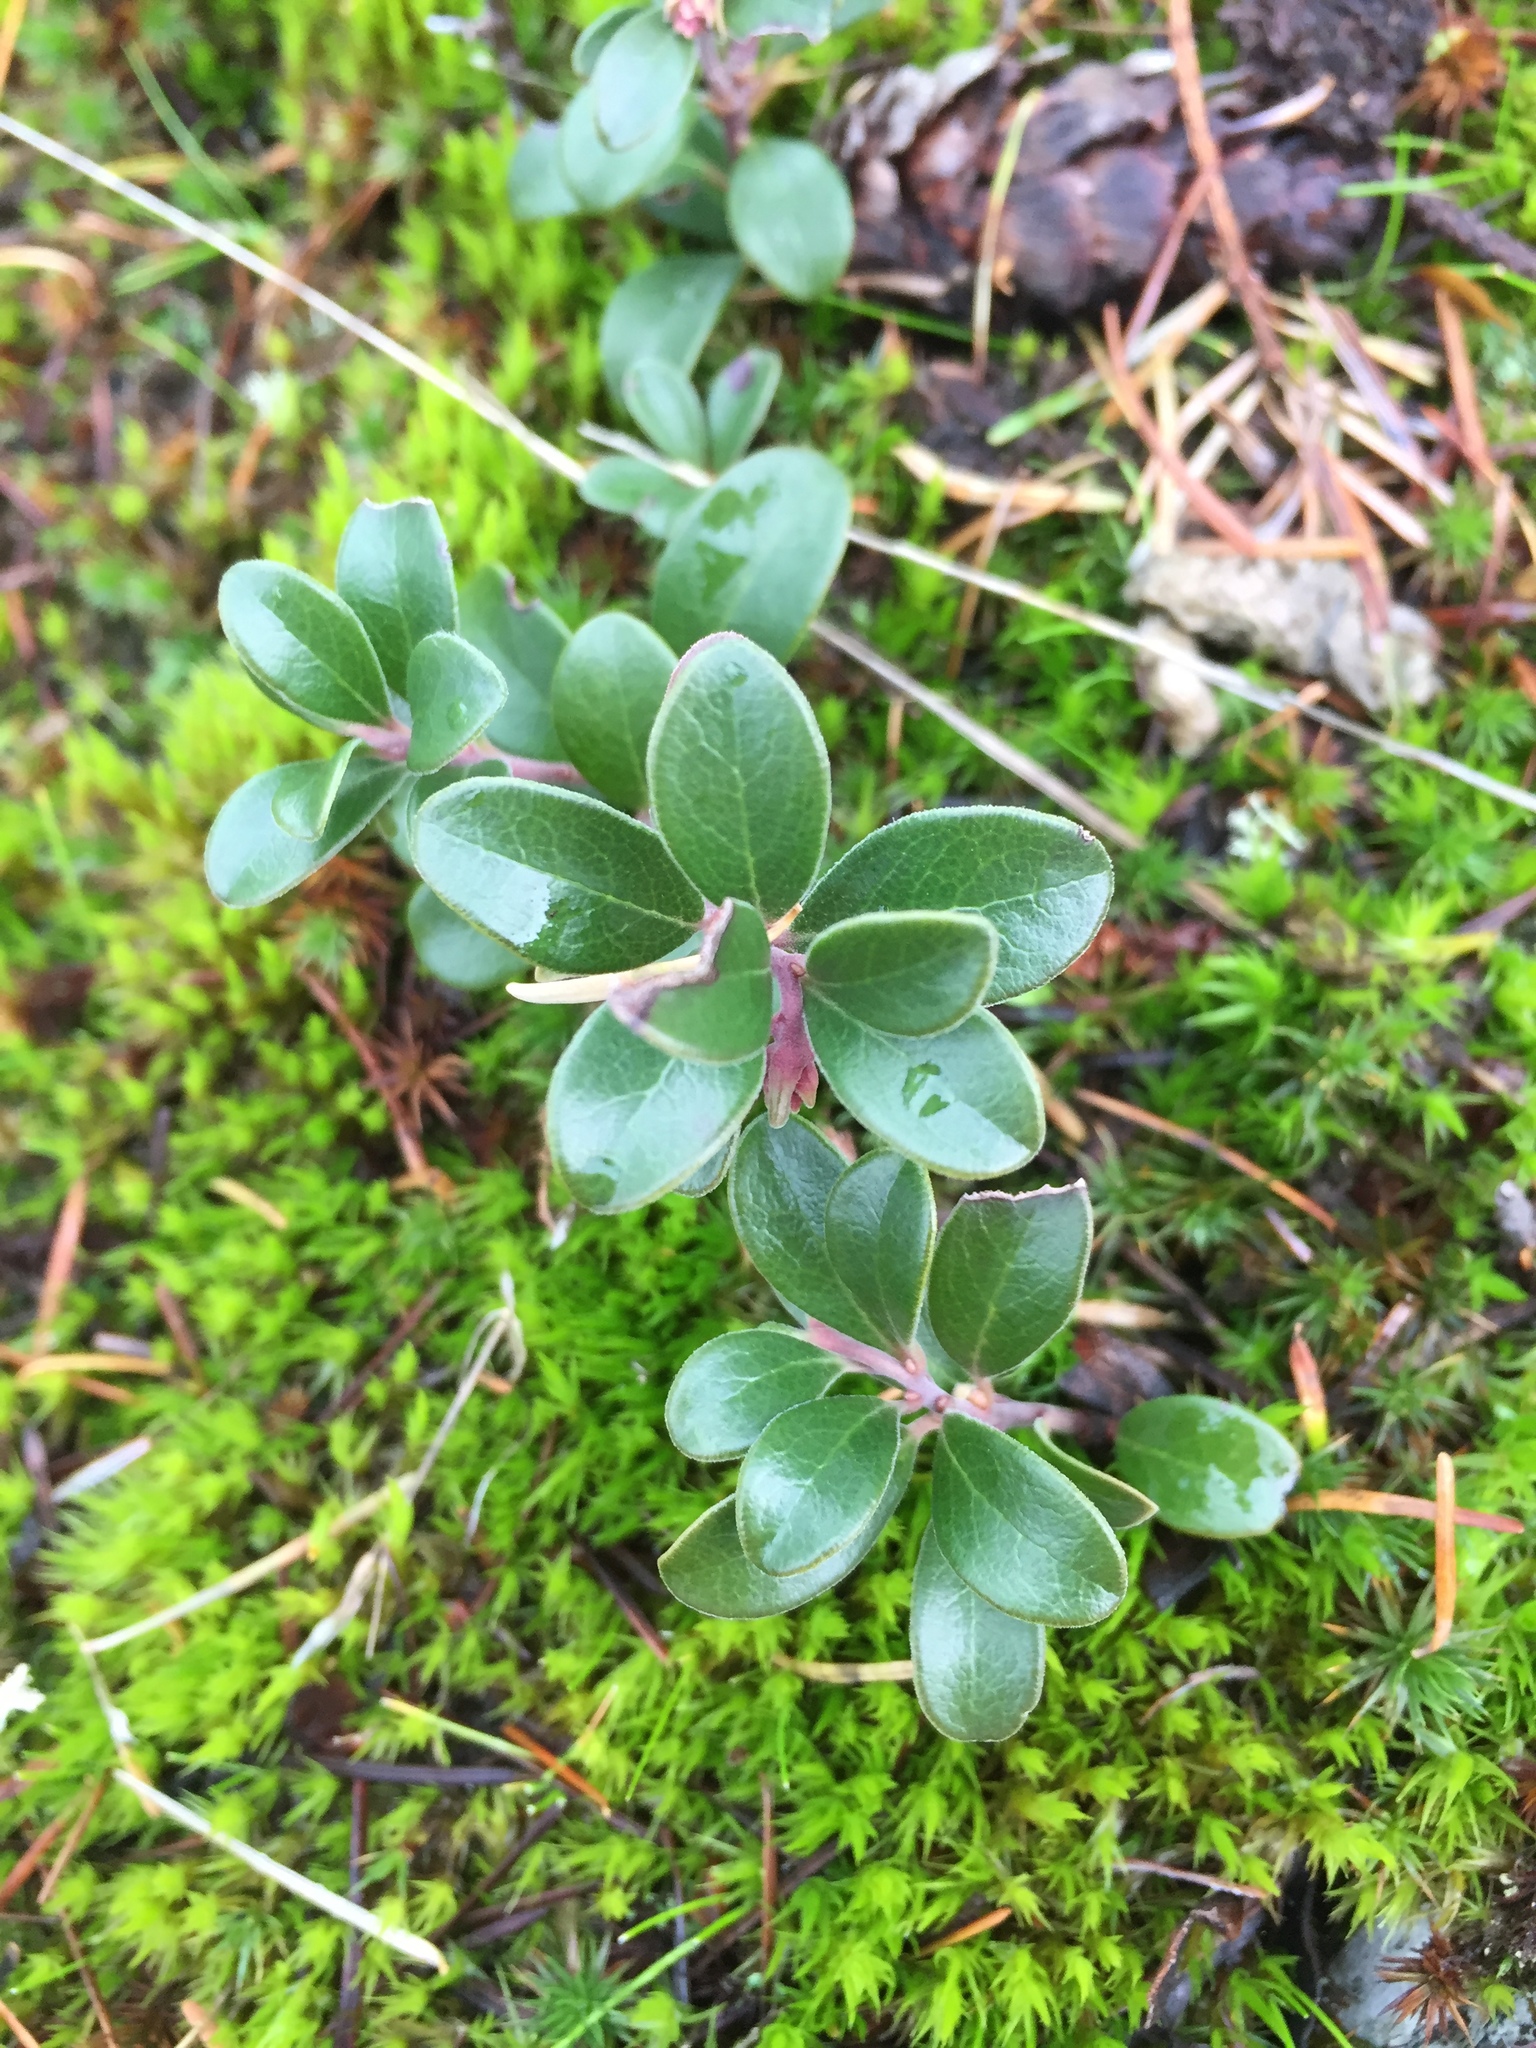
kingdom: Plantae
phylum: Tracheophyta
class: Magnoliopsida
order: Ericales
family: Ericaceae
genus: Arctostaphylos
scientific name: Arctostaphylos uva-ursi
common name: Bearberry
